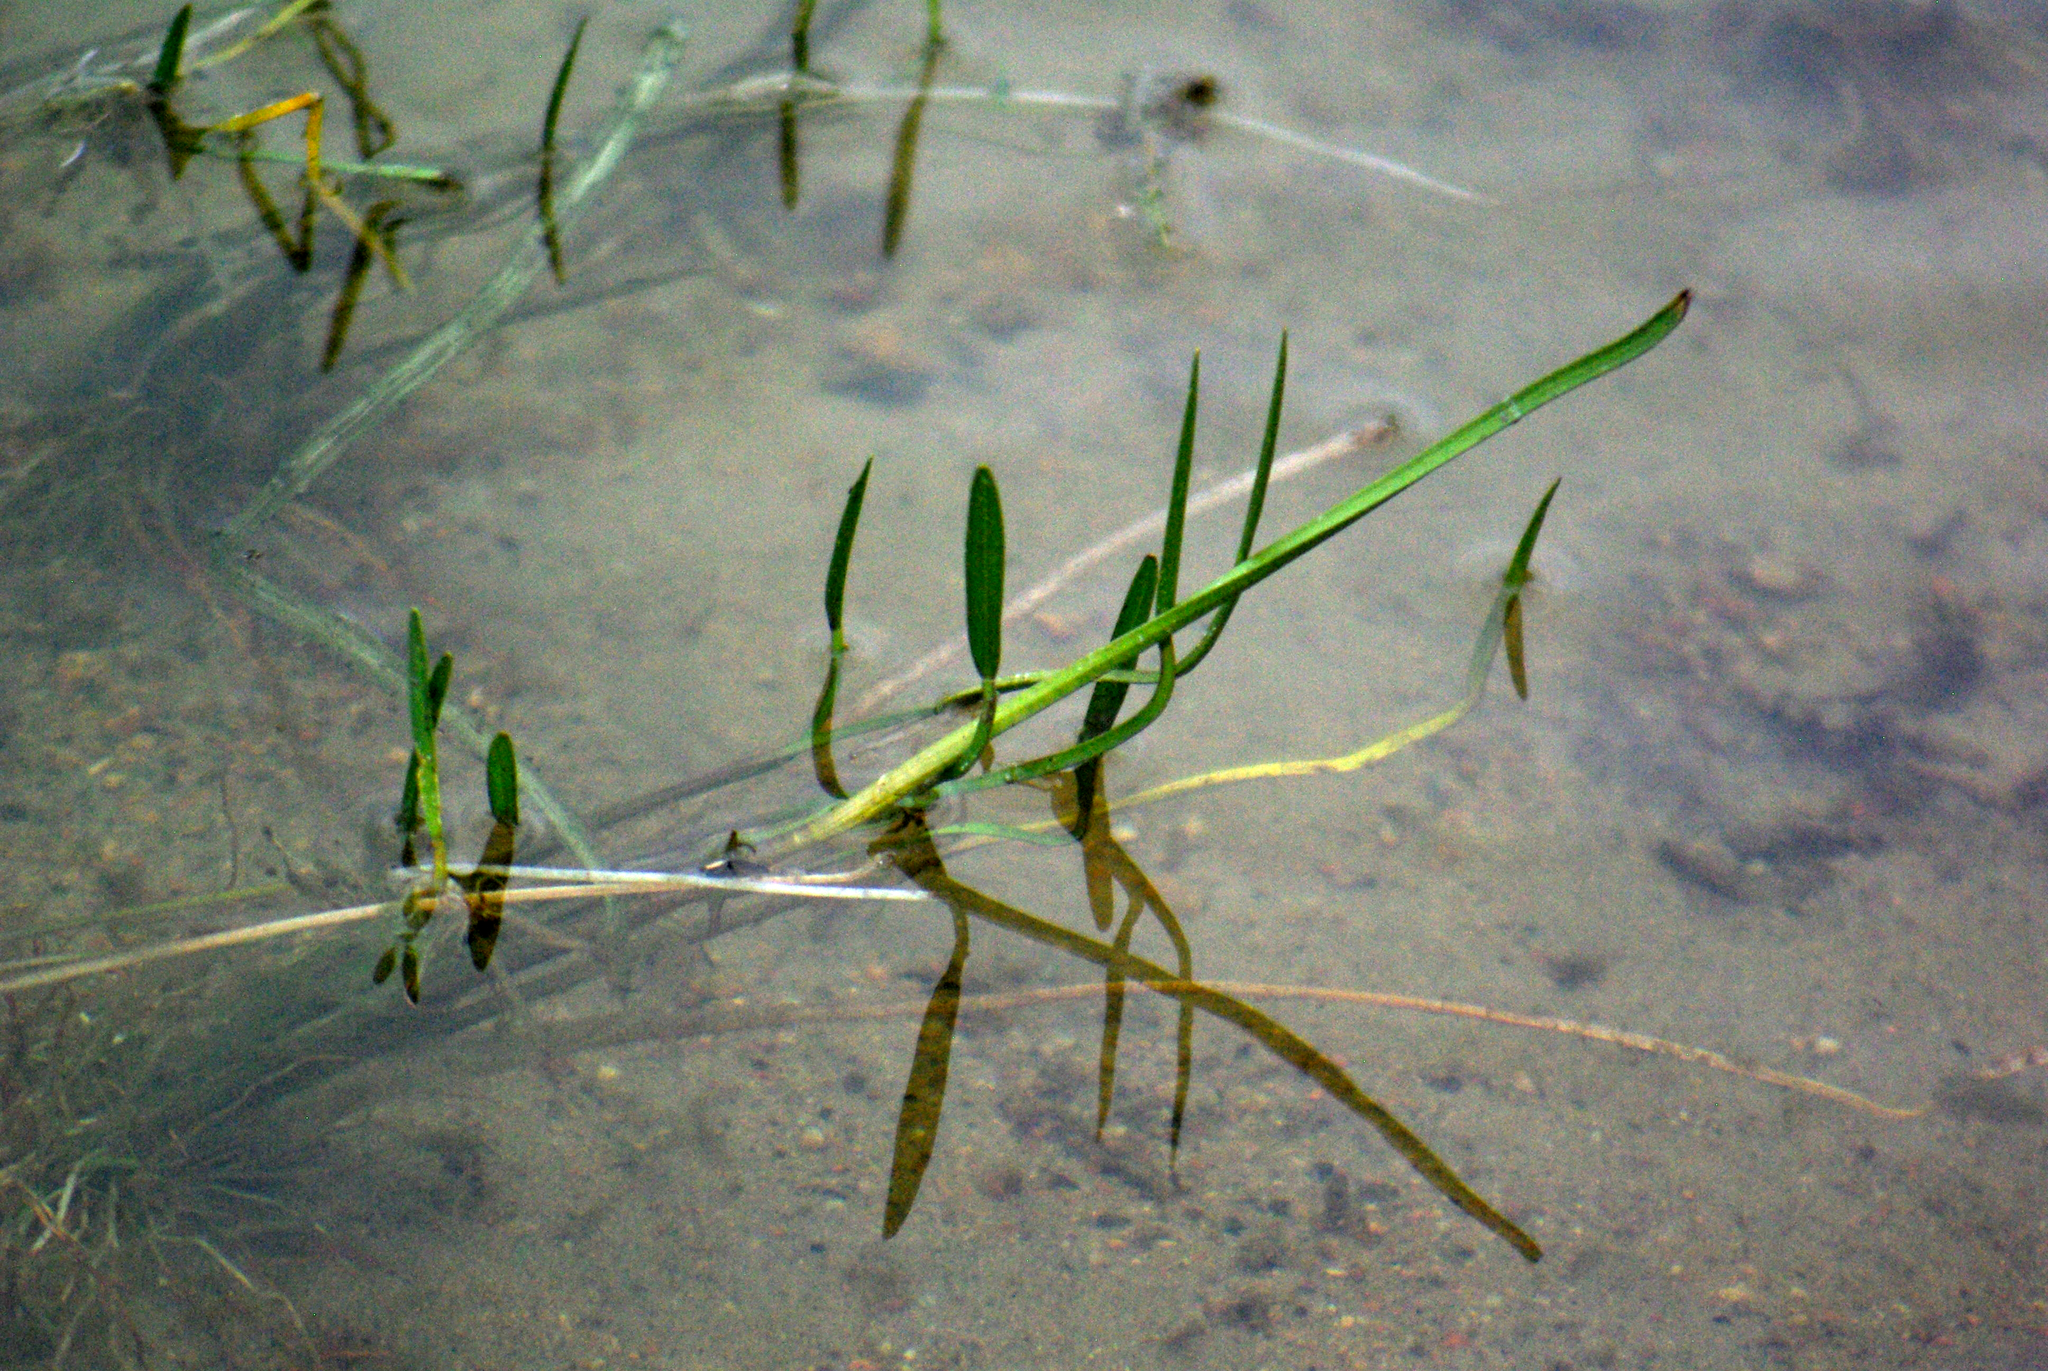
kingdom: Plantae
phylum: Tracheophyta
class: Liliopsida
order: Alismatales
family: Alismataceae
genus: Sagittaria
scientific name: Sagittaria rigida
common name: Canadian arrowhead
